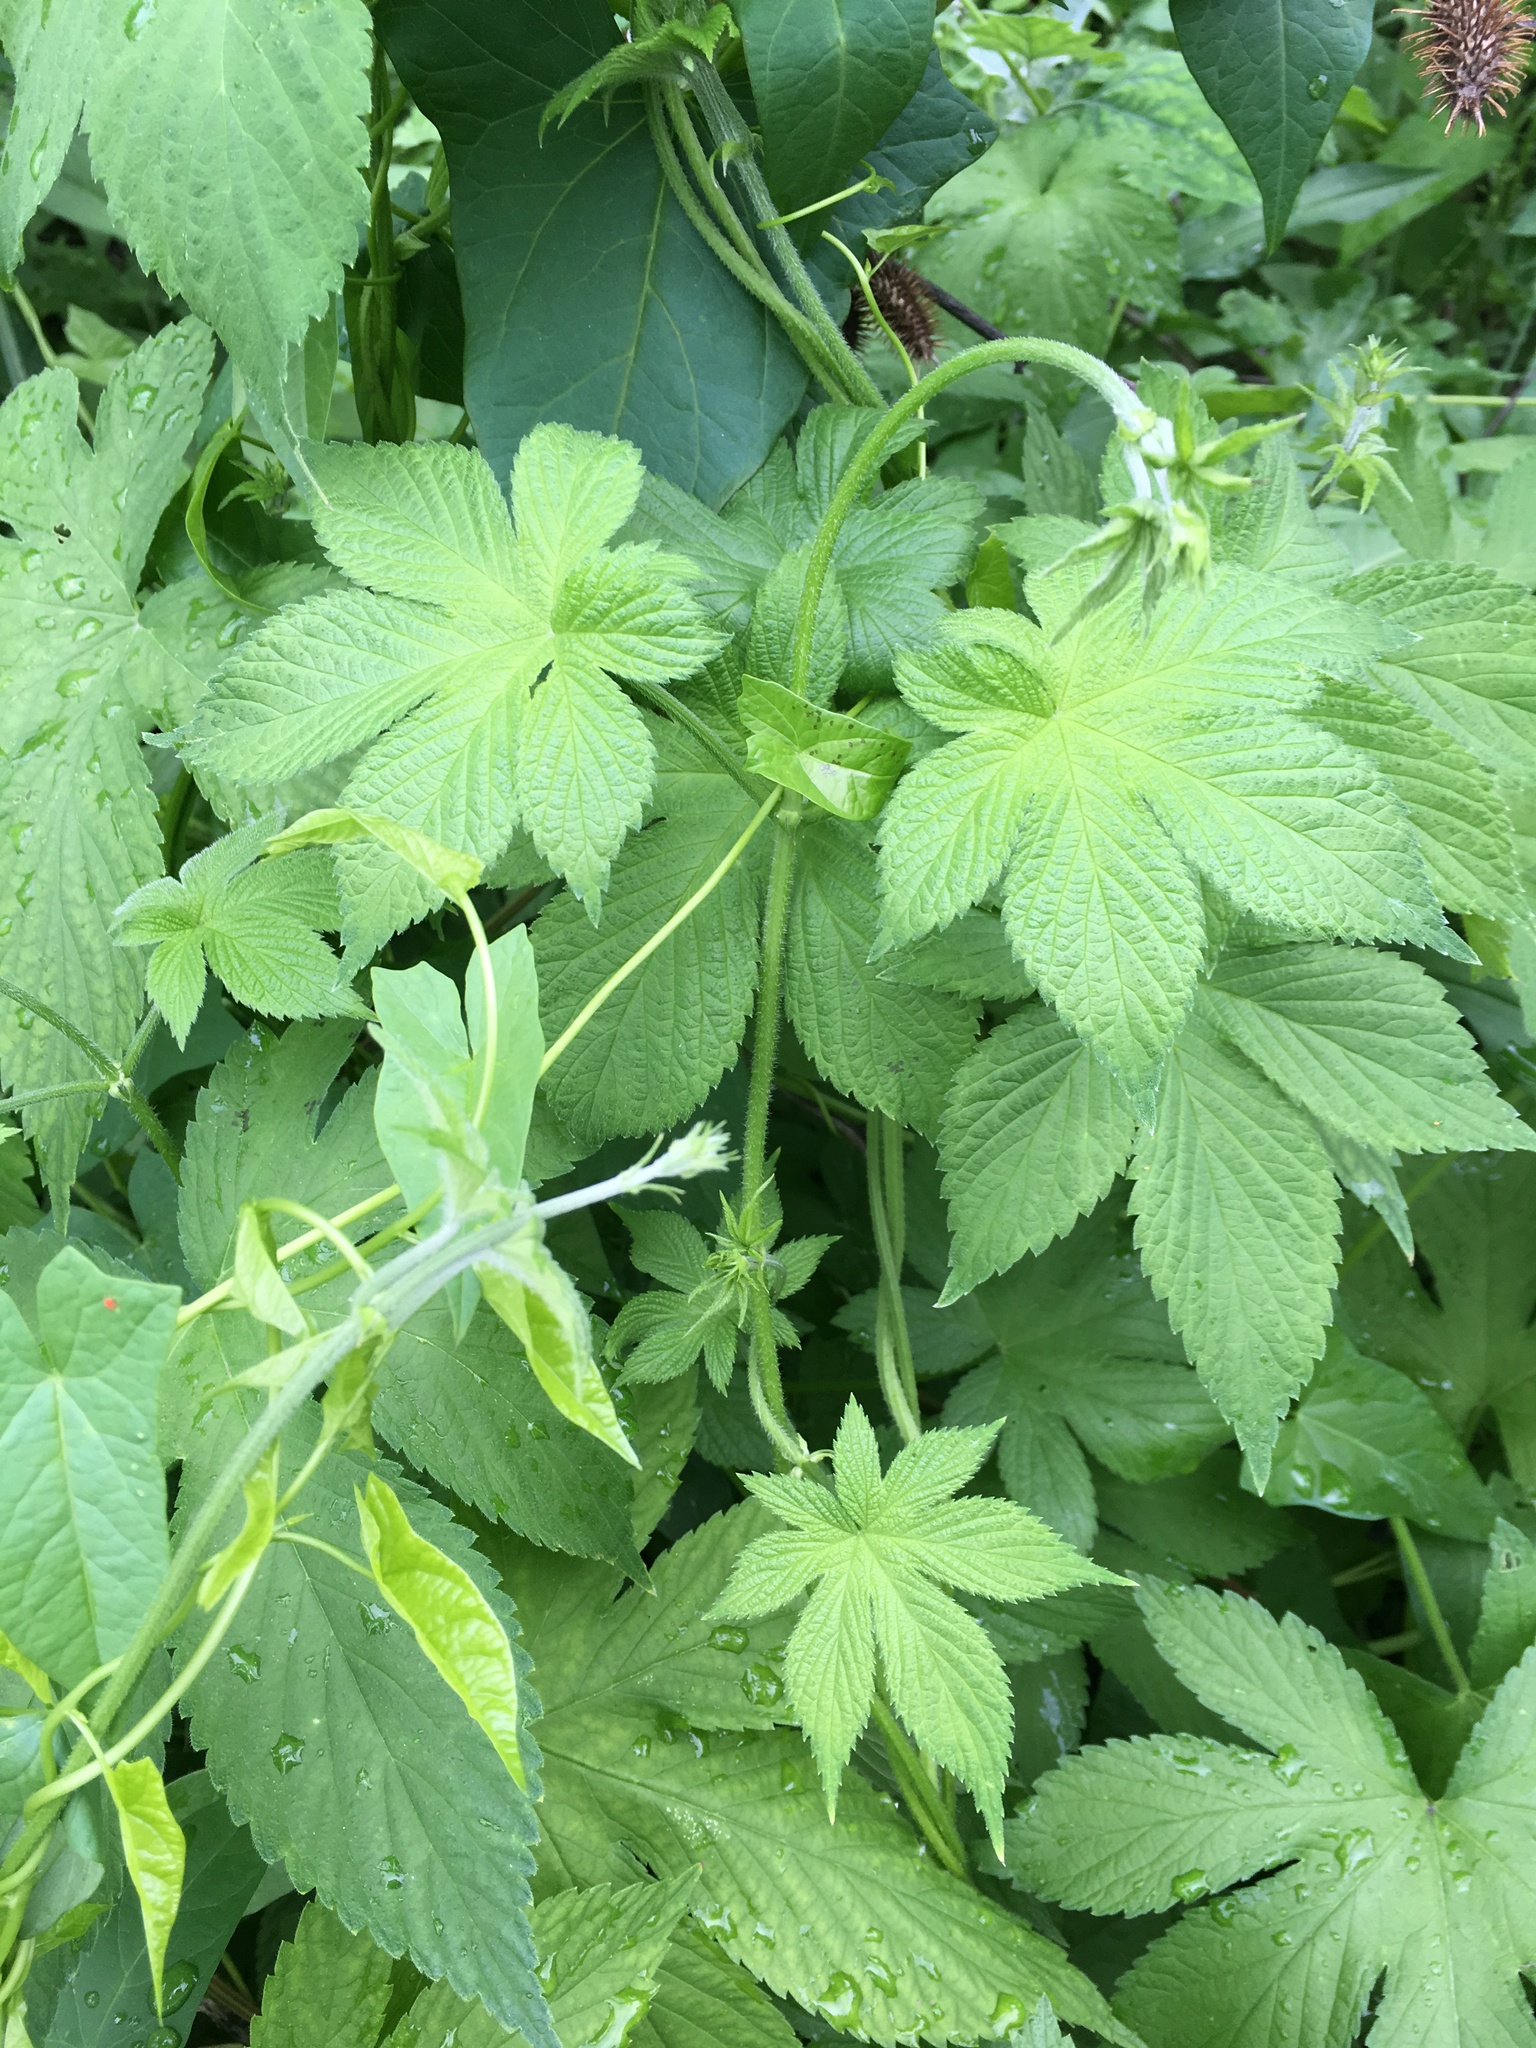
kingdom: Plantae
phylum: Tracheophyta
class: Magnoliopsida
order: Rosales
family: Cannabaceae
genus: Humulus
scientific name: Humulus scandens
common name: Japanese hop
